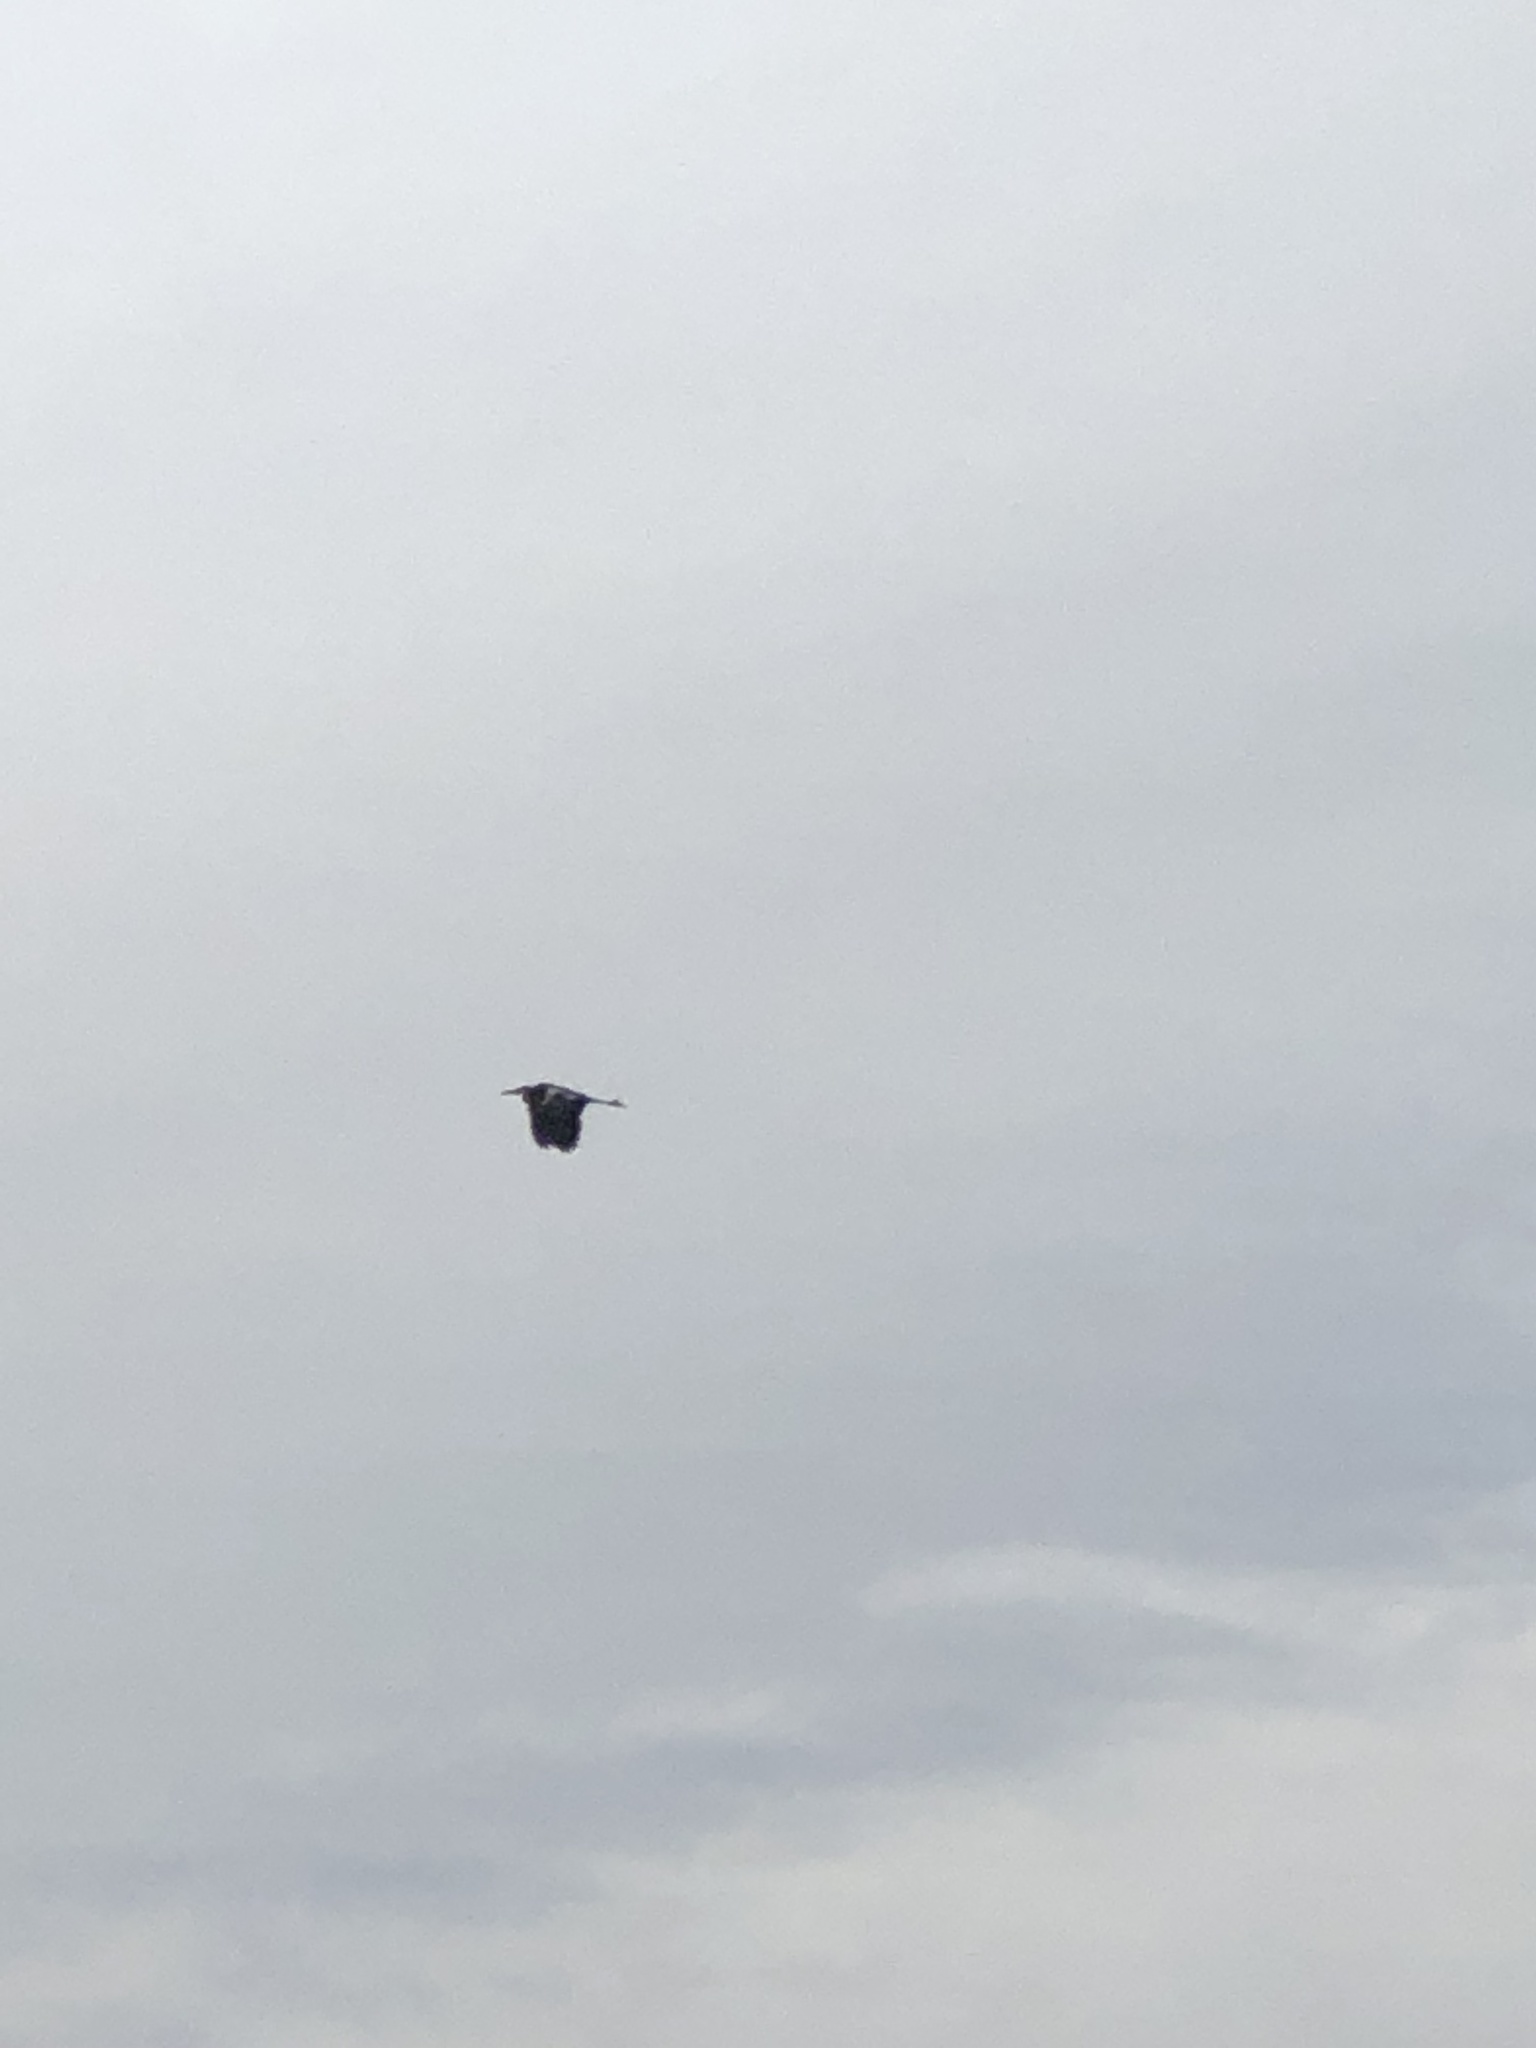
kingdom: Animalia
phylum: Chordata
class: Aves
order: Pelecaniformes
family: Ardeidae
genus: Ardea
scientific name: Ardea herodias
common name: Great blue heron
